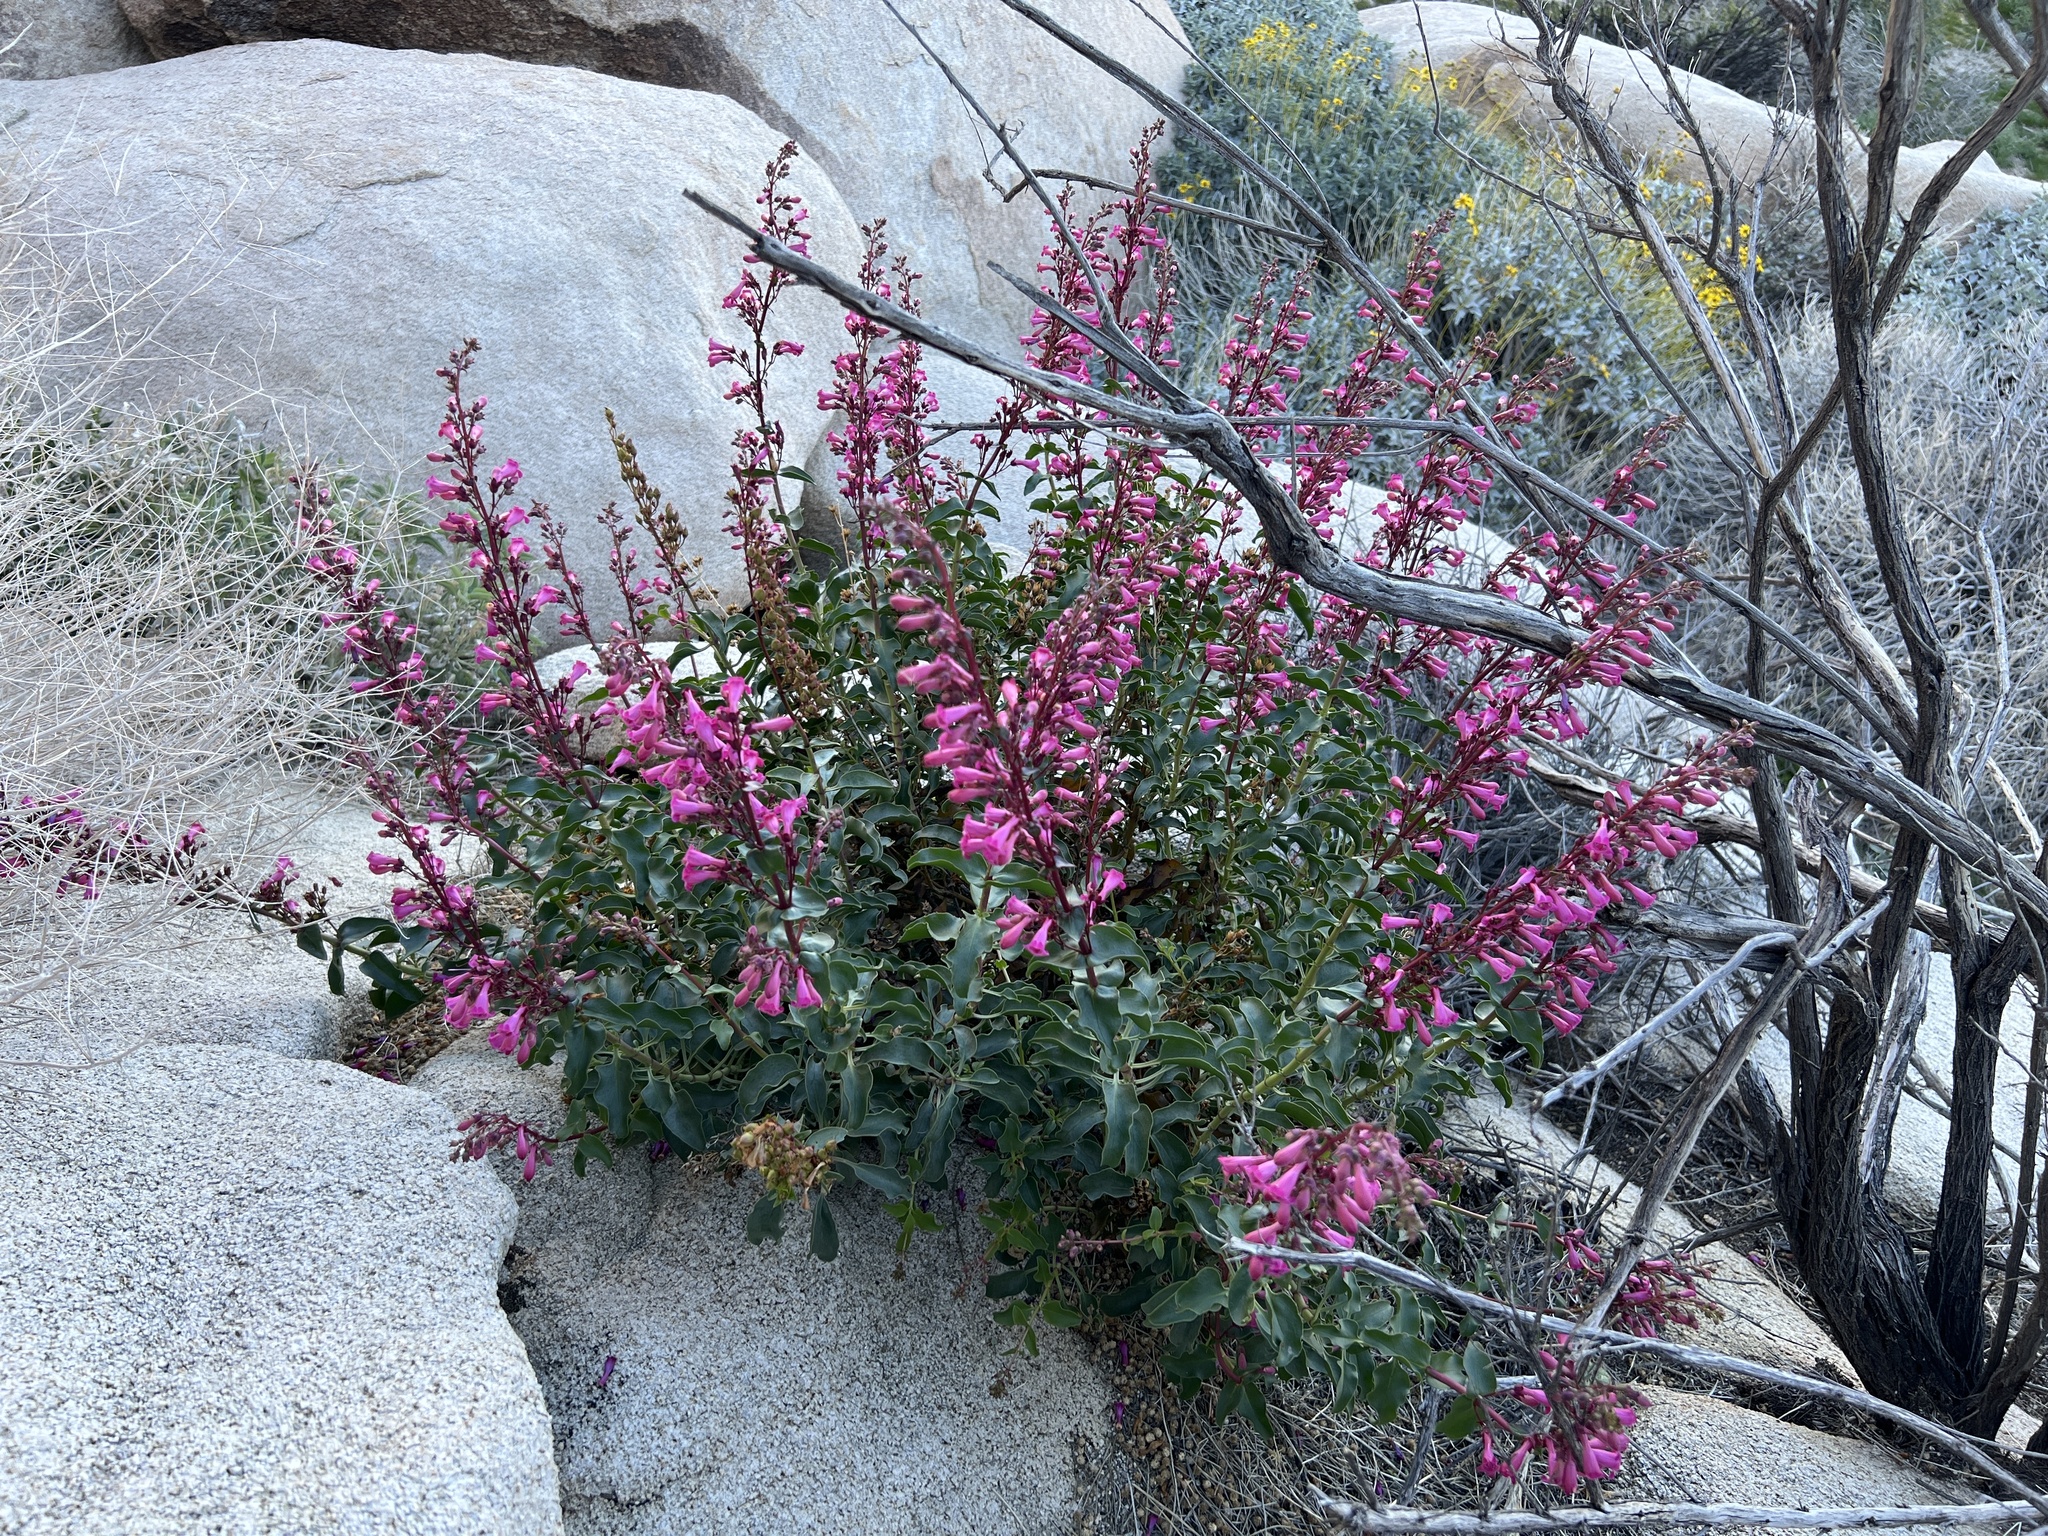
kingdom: Plantae
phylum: Tracheophyta
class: Magnoliopsida
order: Lamiales
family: Plantaginaceae
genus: Penstemon
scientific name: Penstemon clevelandii
